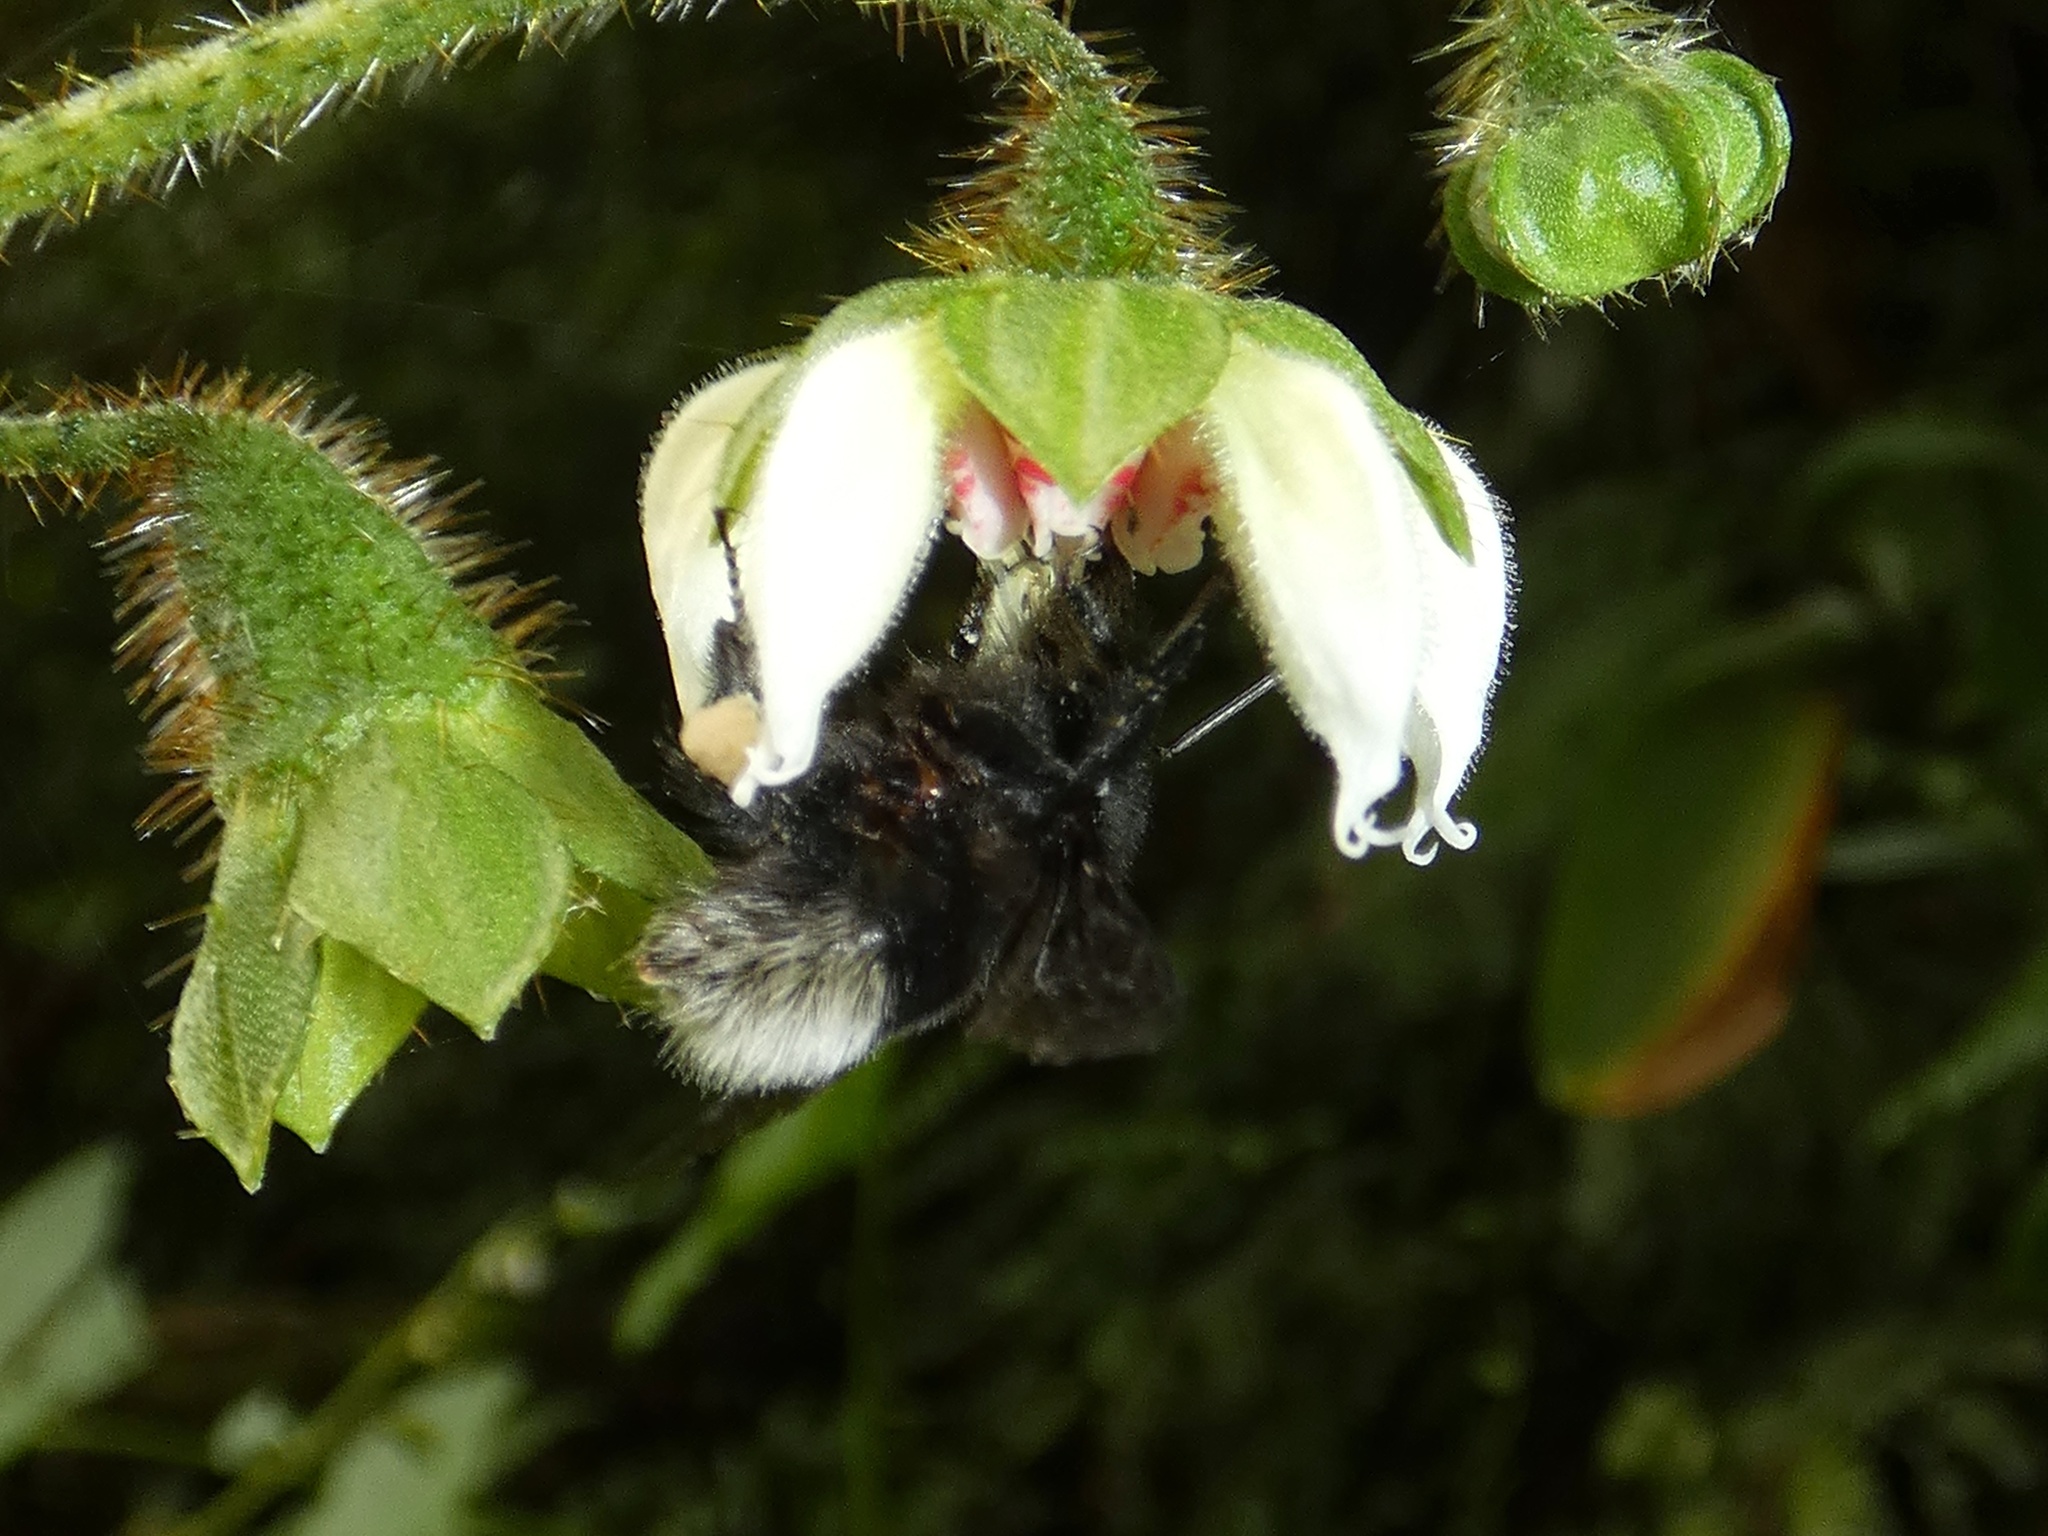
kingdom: Animalia
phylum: Arthropoda
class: Insecta
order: Hymenoptera
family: Apidae
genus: Bombus
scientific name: Bombus volucelloides
